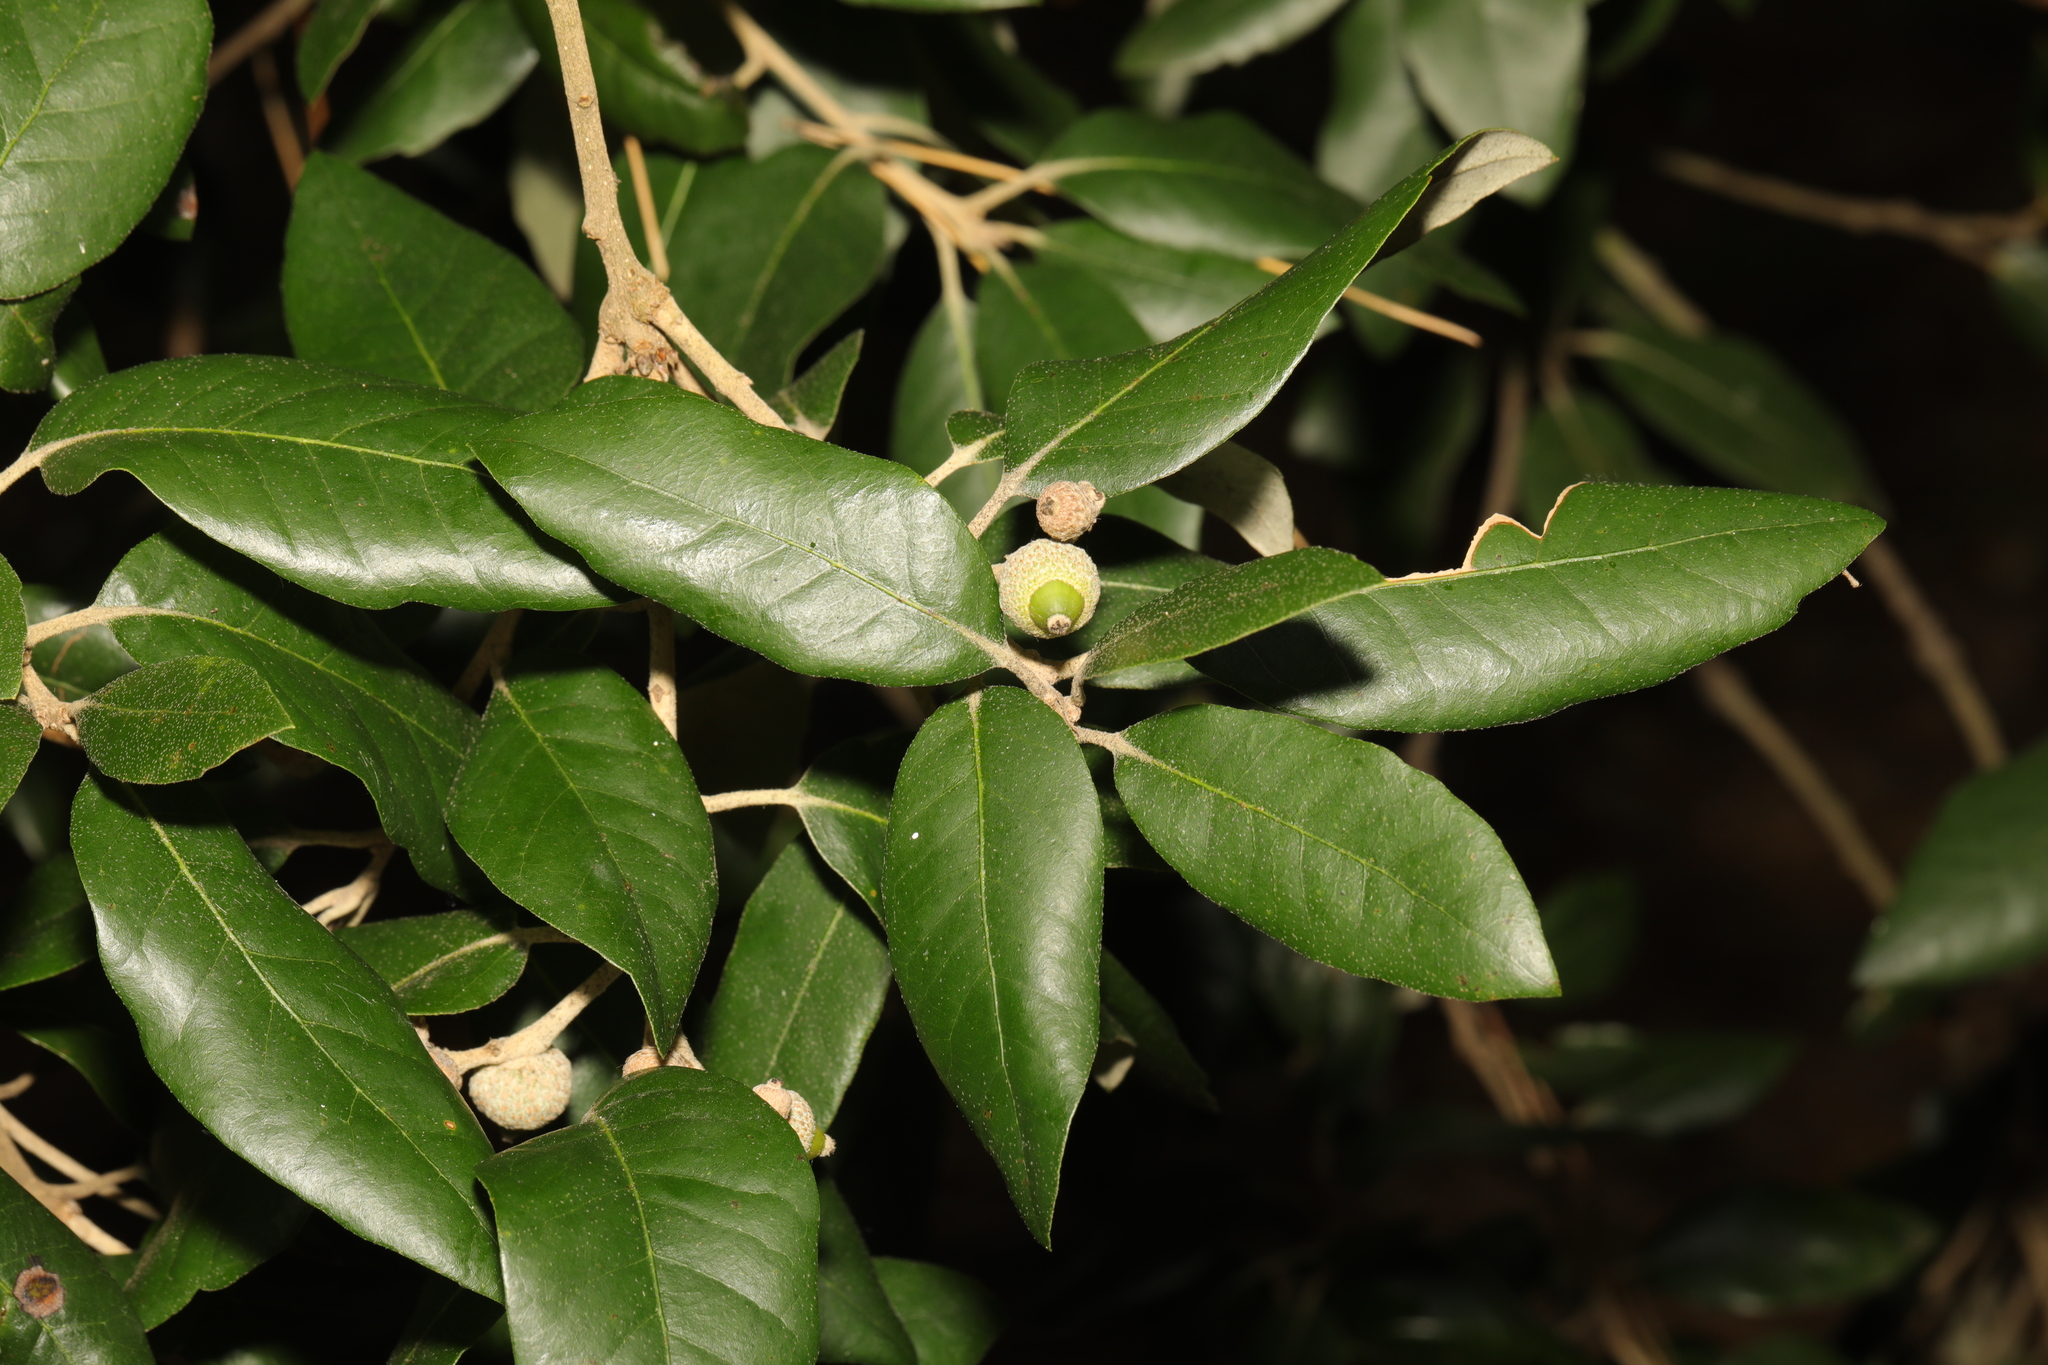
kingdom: Plantae
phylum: Tracheophyta
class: Magnoliopsida
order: Fagales
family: Fagaceae
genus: Quercus
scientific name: Quercus ilex
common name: Evergreen oak
